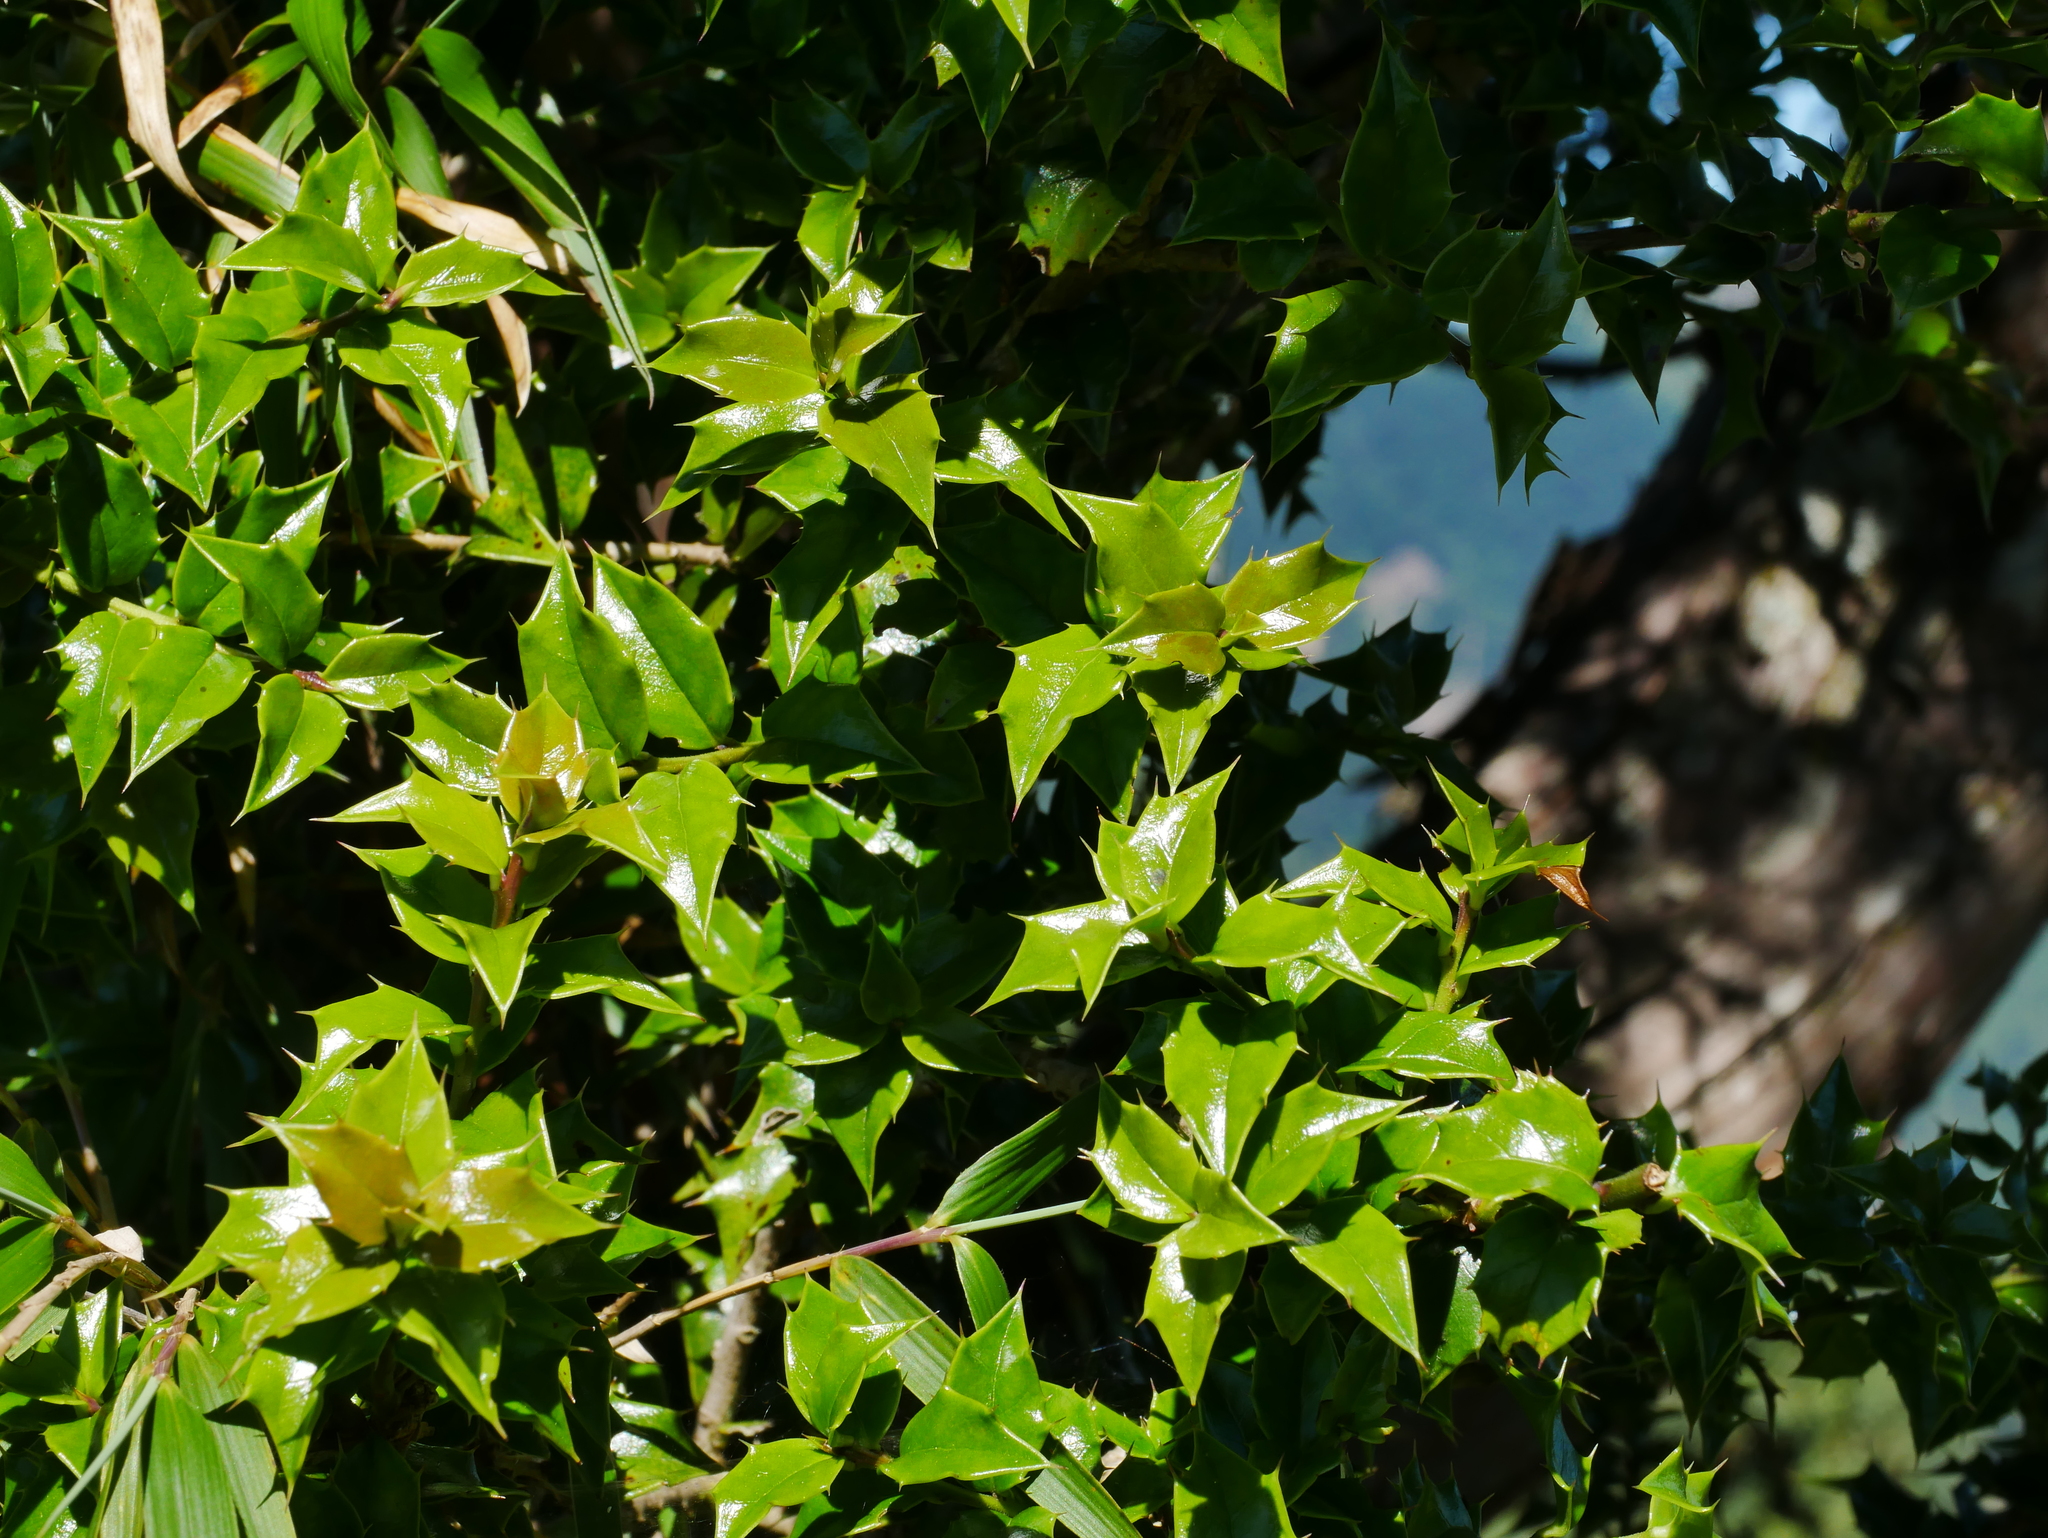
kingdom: Plantae
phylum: Tracheophyta
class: Magnoliopsida
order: Aquifoliales
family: Aquifoliaceae
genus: Ilex
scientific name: Ilex bioritsensis
